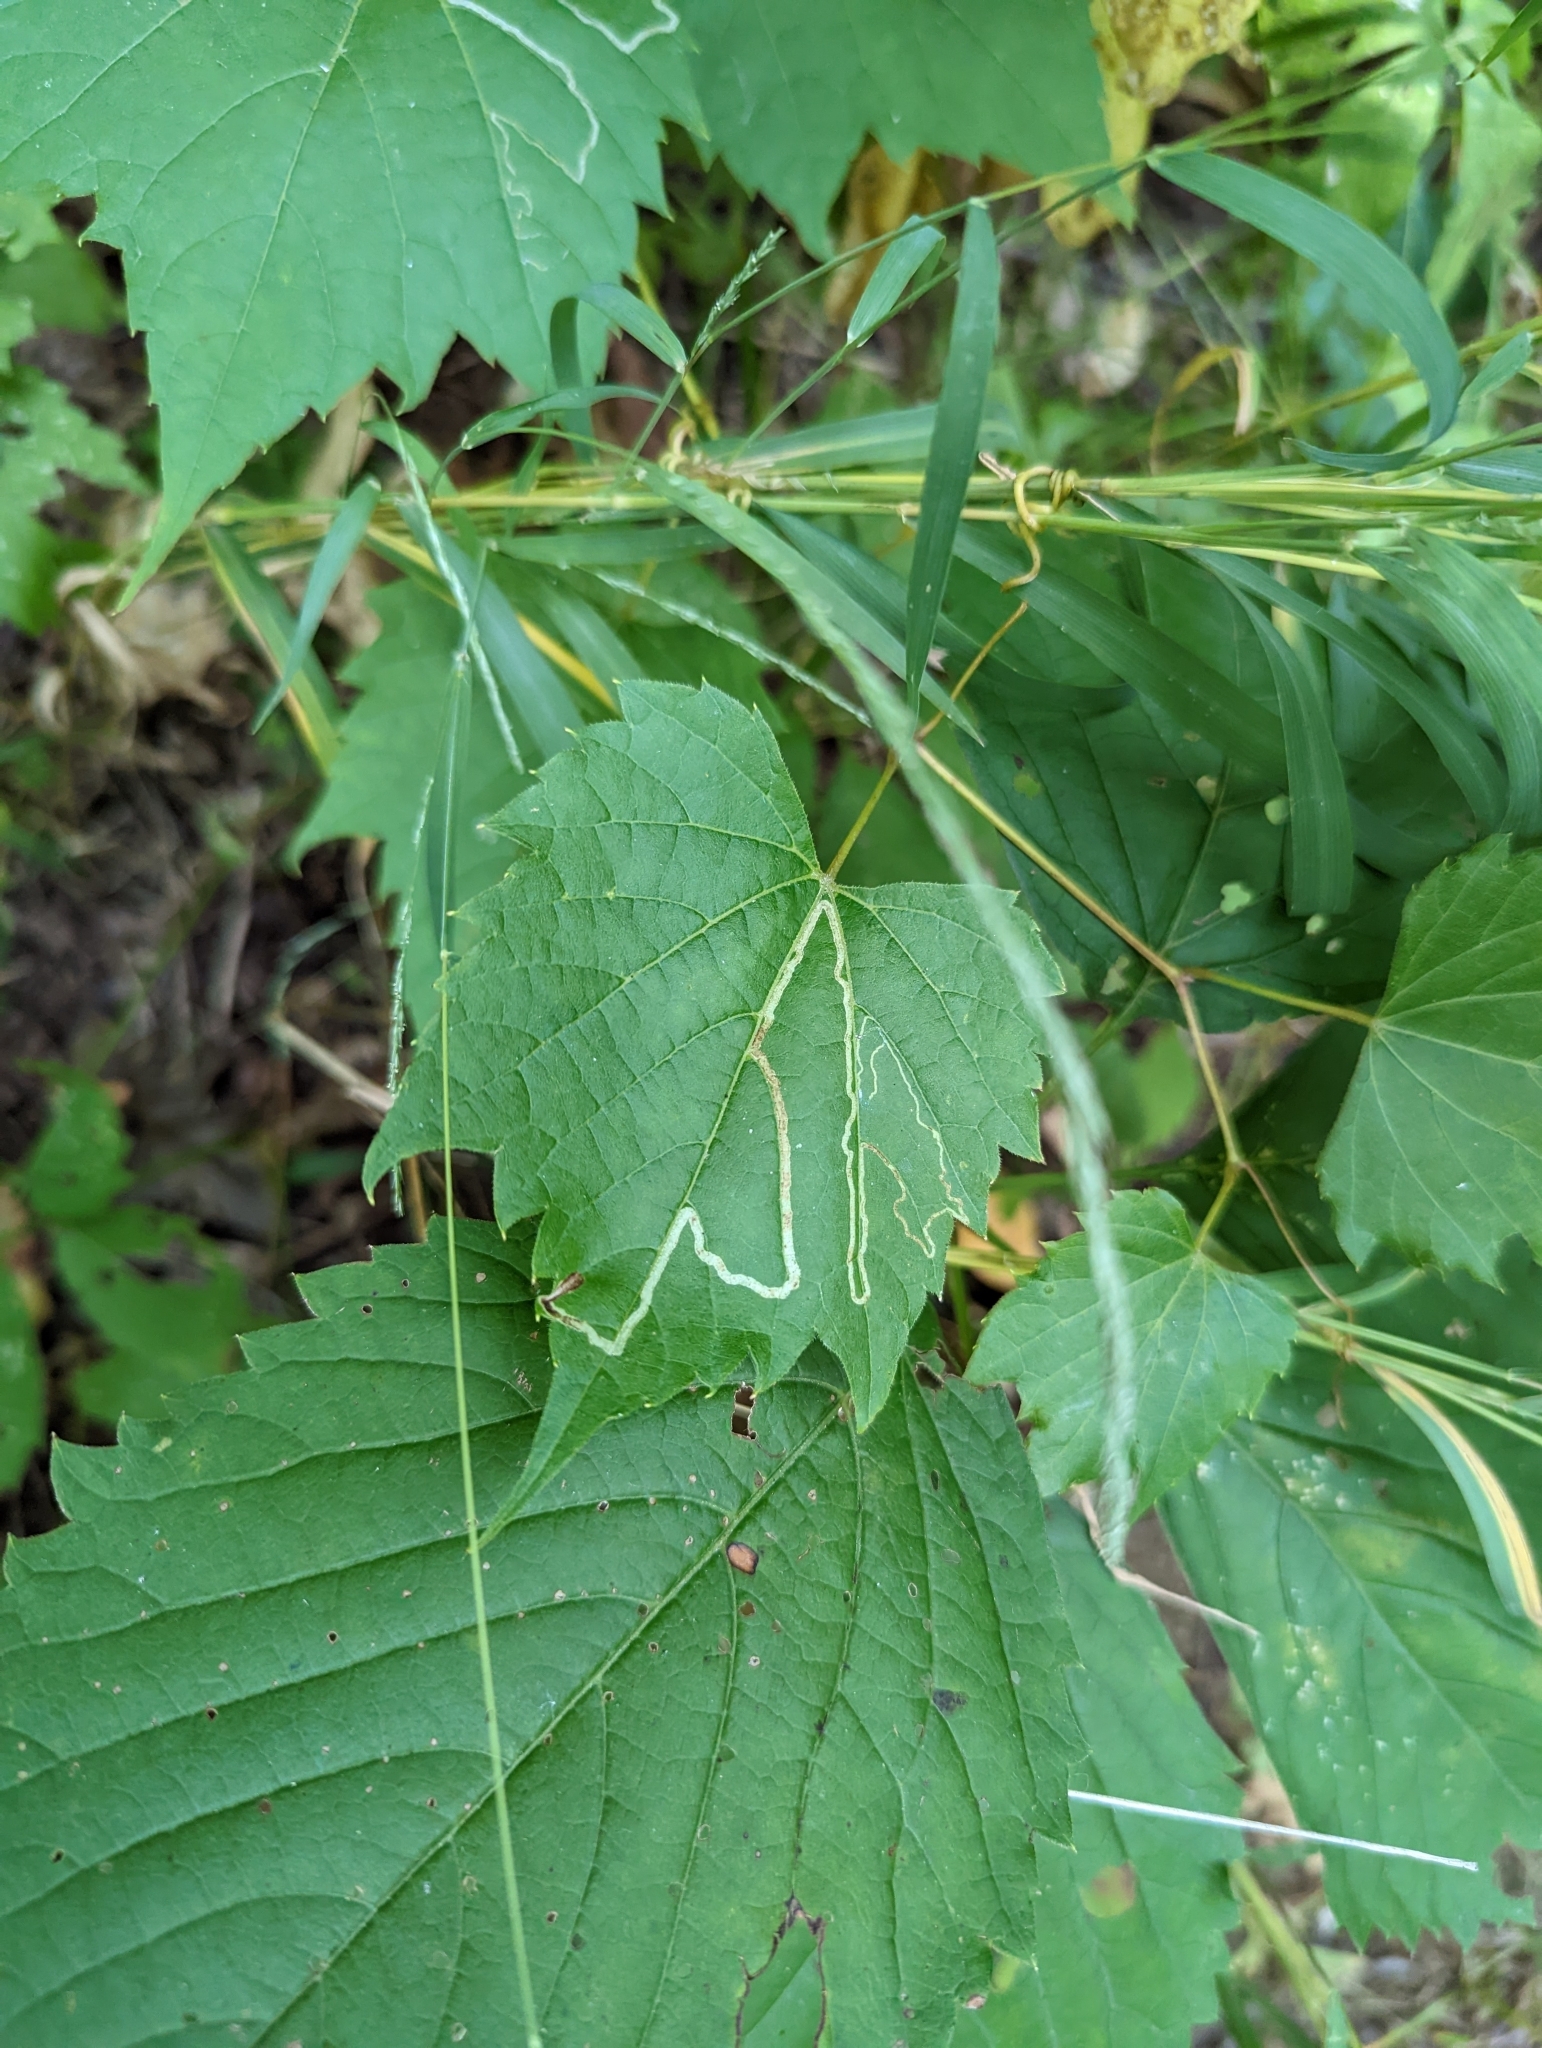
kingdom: Animalia
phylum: Arthropoda
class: Insecta
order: Lepidoptera
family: Gracillariidae
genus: Phyllocnistis
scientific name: Phyllocnistis vitifoliella
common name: Grape leaf-miner moth
